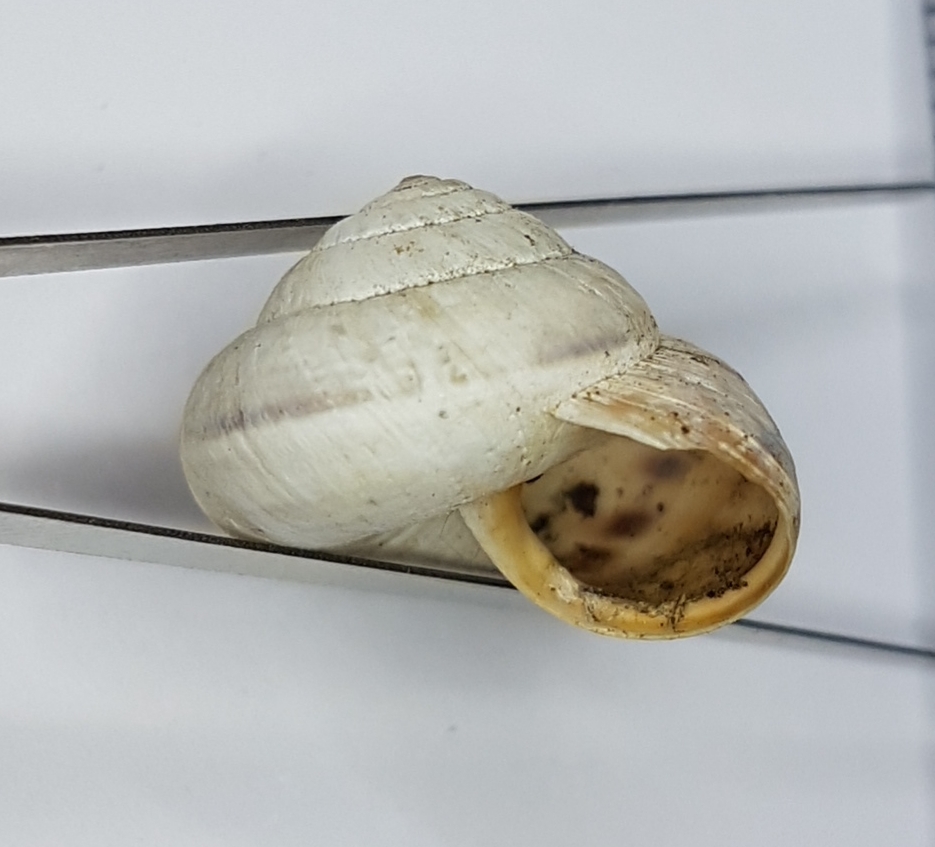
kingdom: Animalia
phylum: Mollusca
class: Gastropoda
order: Stylommatophora
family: Geomitridae
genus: Cernuella
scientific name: Cernuella virgata
